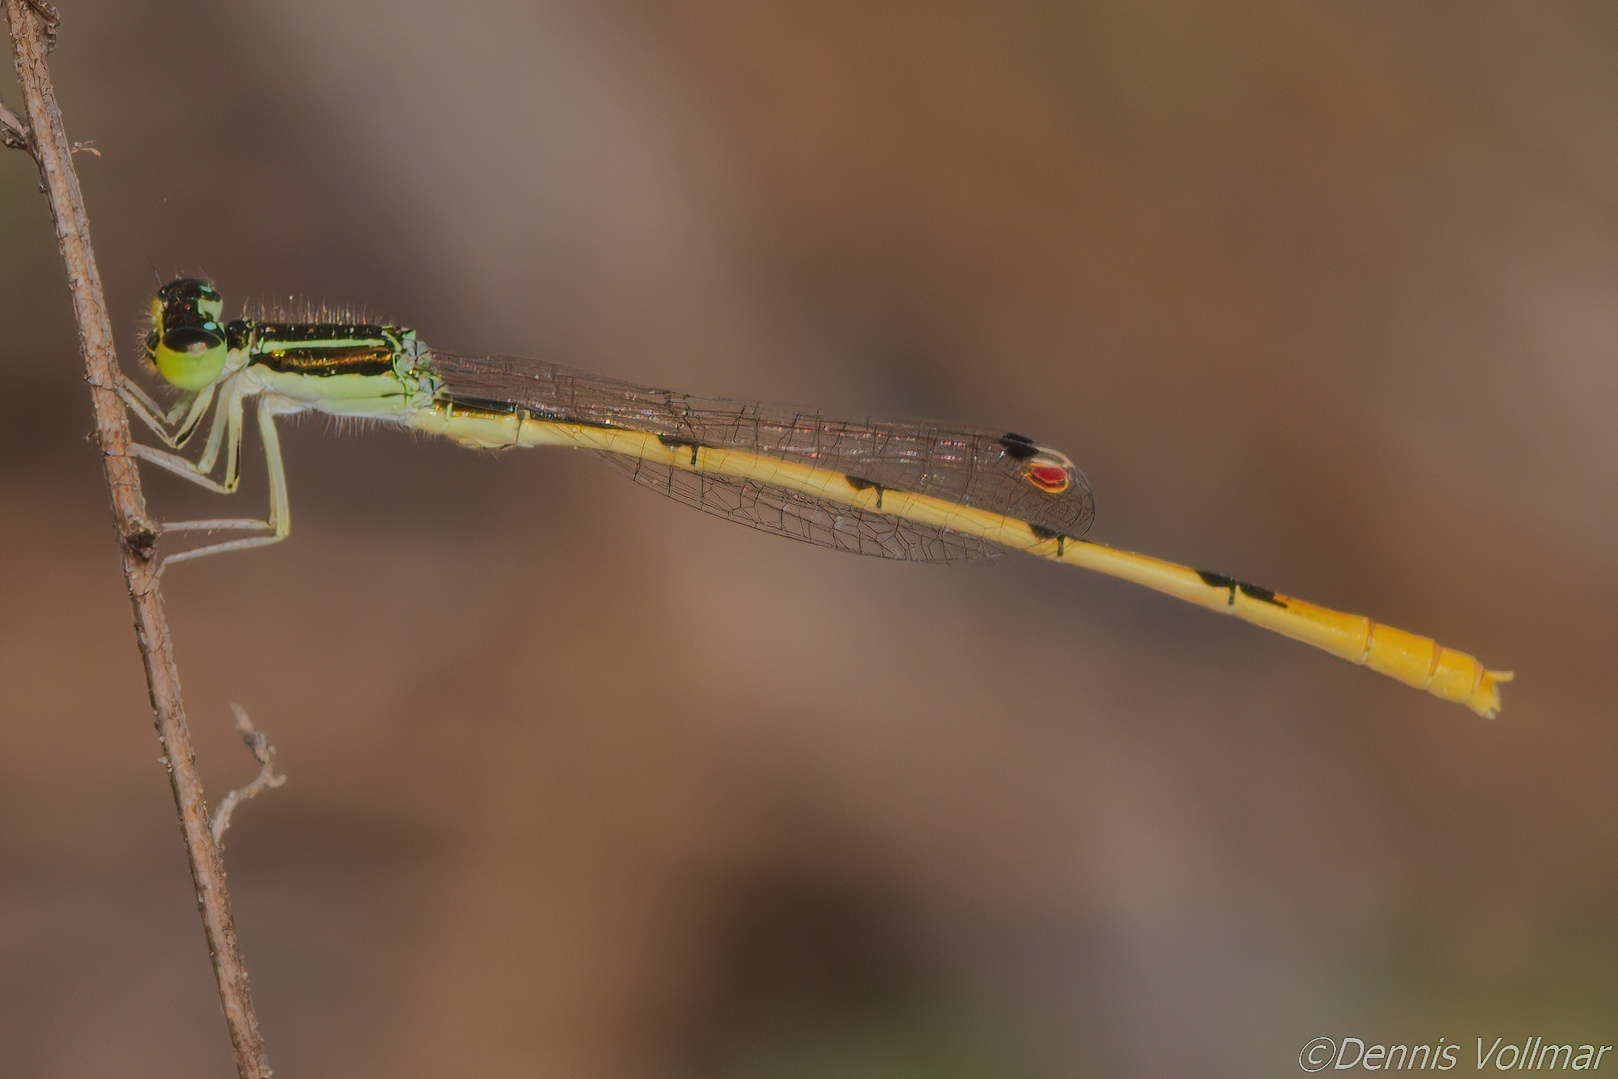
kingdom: Animalia
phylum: Arthropoda
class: Insecta
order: Odonata
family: Coenagrionidae
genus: Ischnura
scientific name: Ischnura hastata
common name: Citrine forktail
